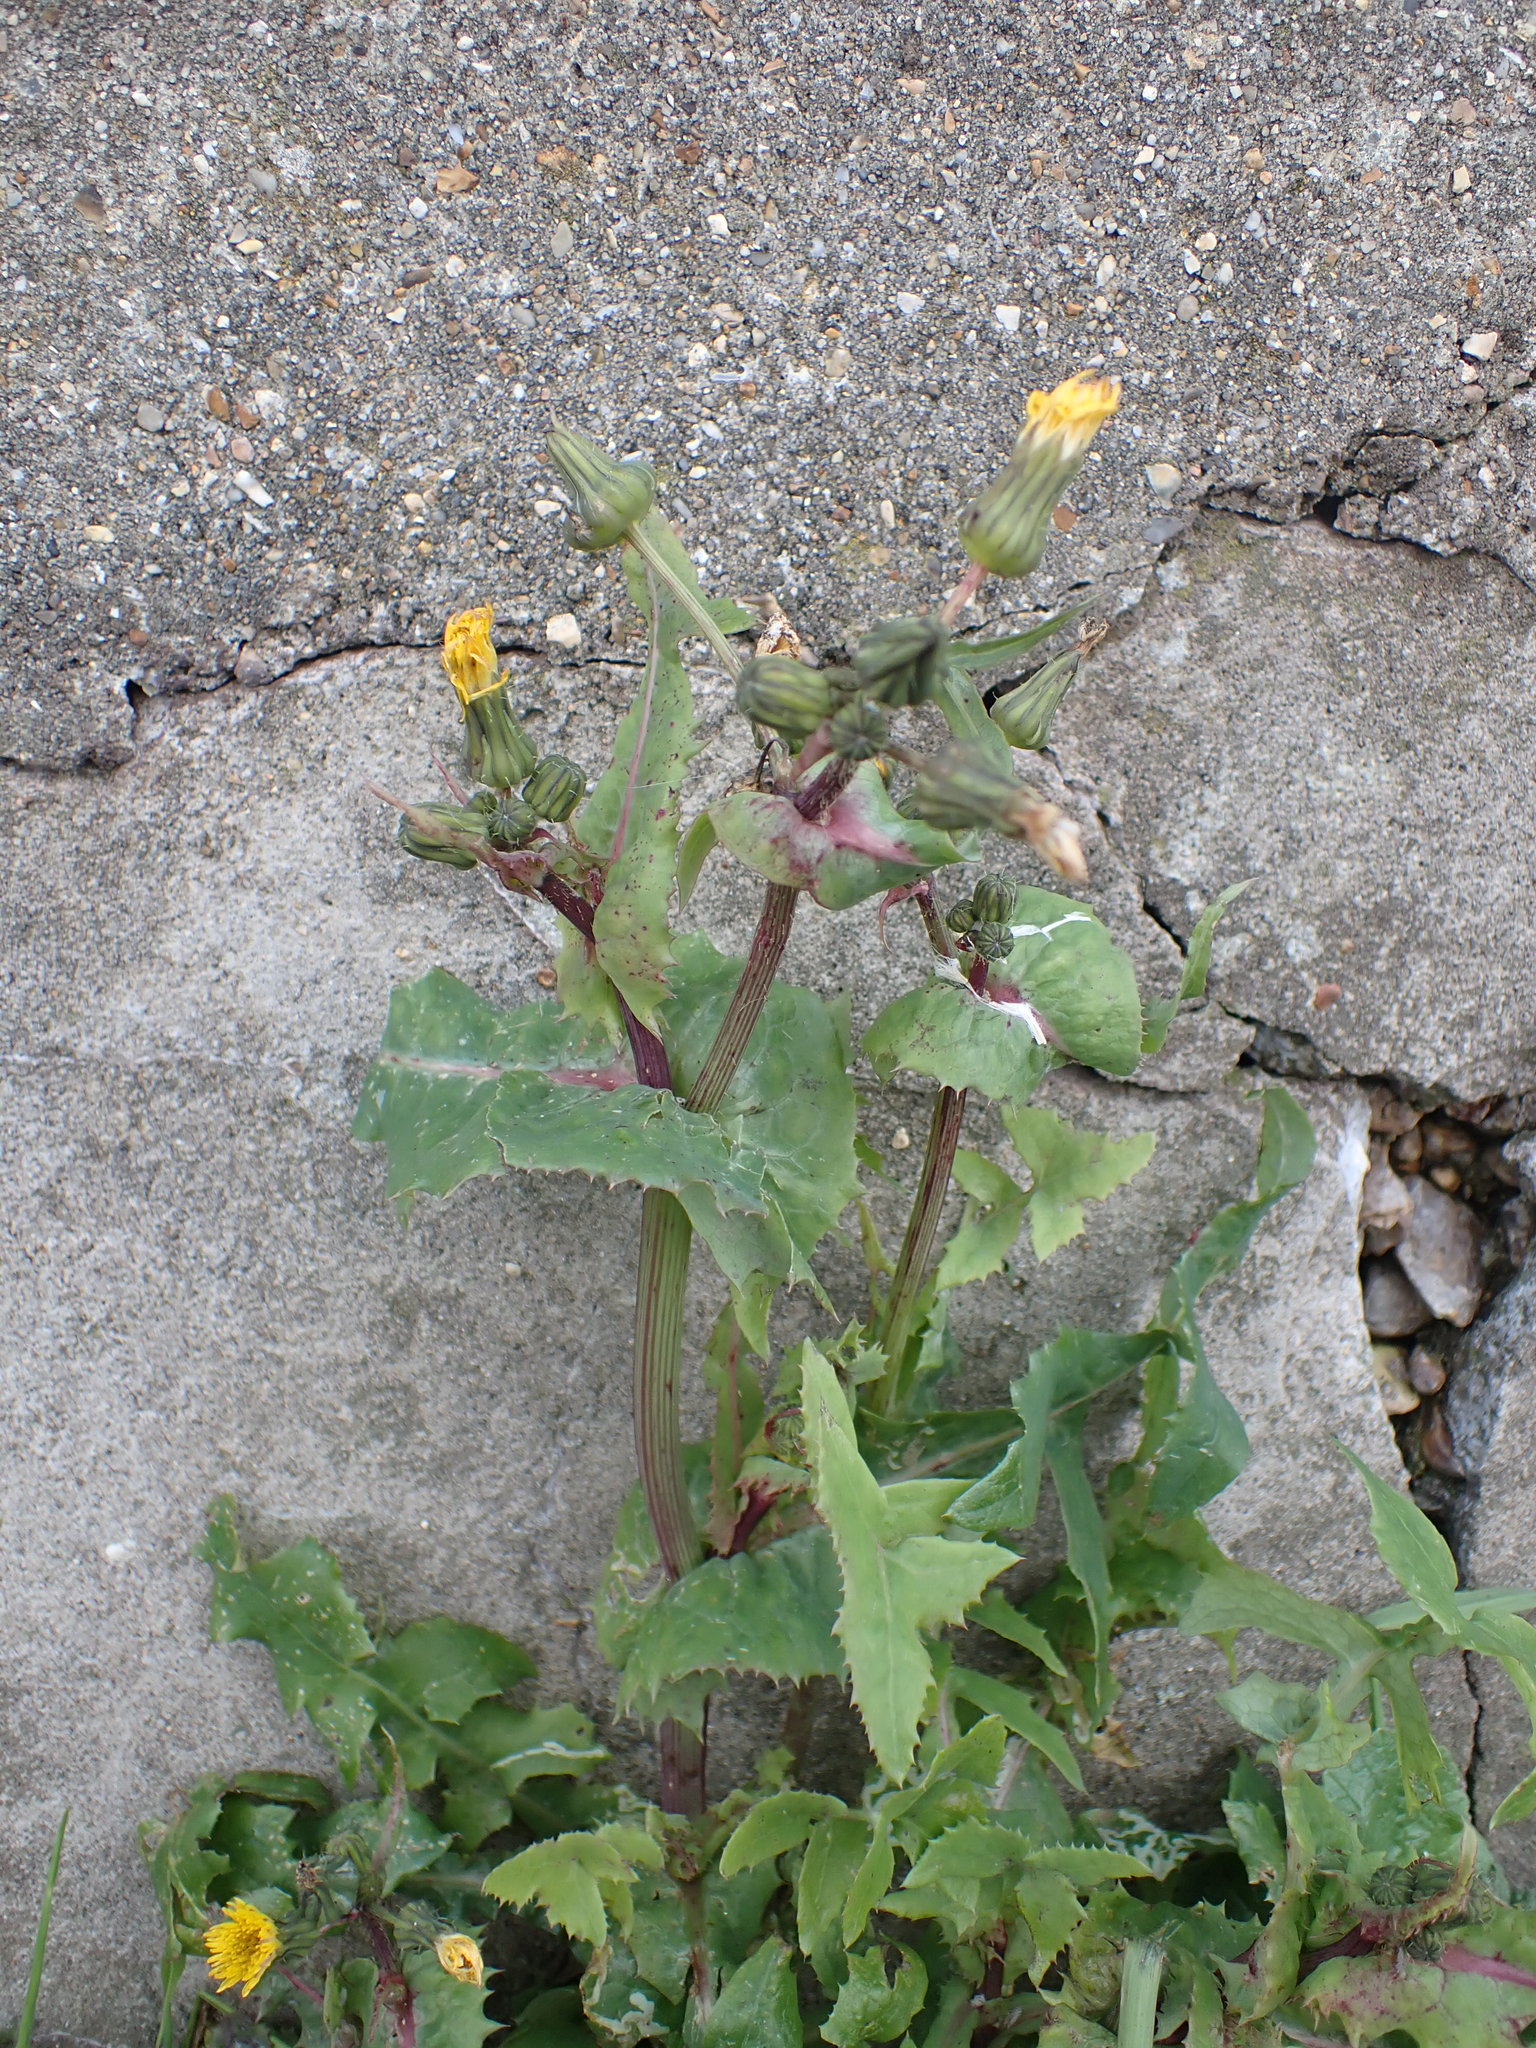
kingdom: Plantae
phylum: Tracheophyta
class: Magnoliopsida
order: Asterales
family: Asteraceae
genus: Sonchus
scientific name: Sonchus oleraceus
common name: Common sowthistle
